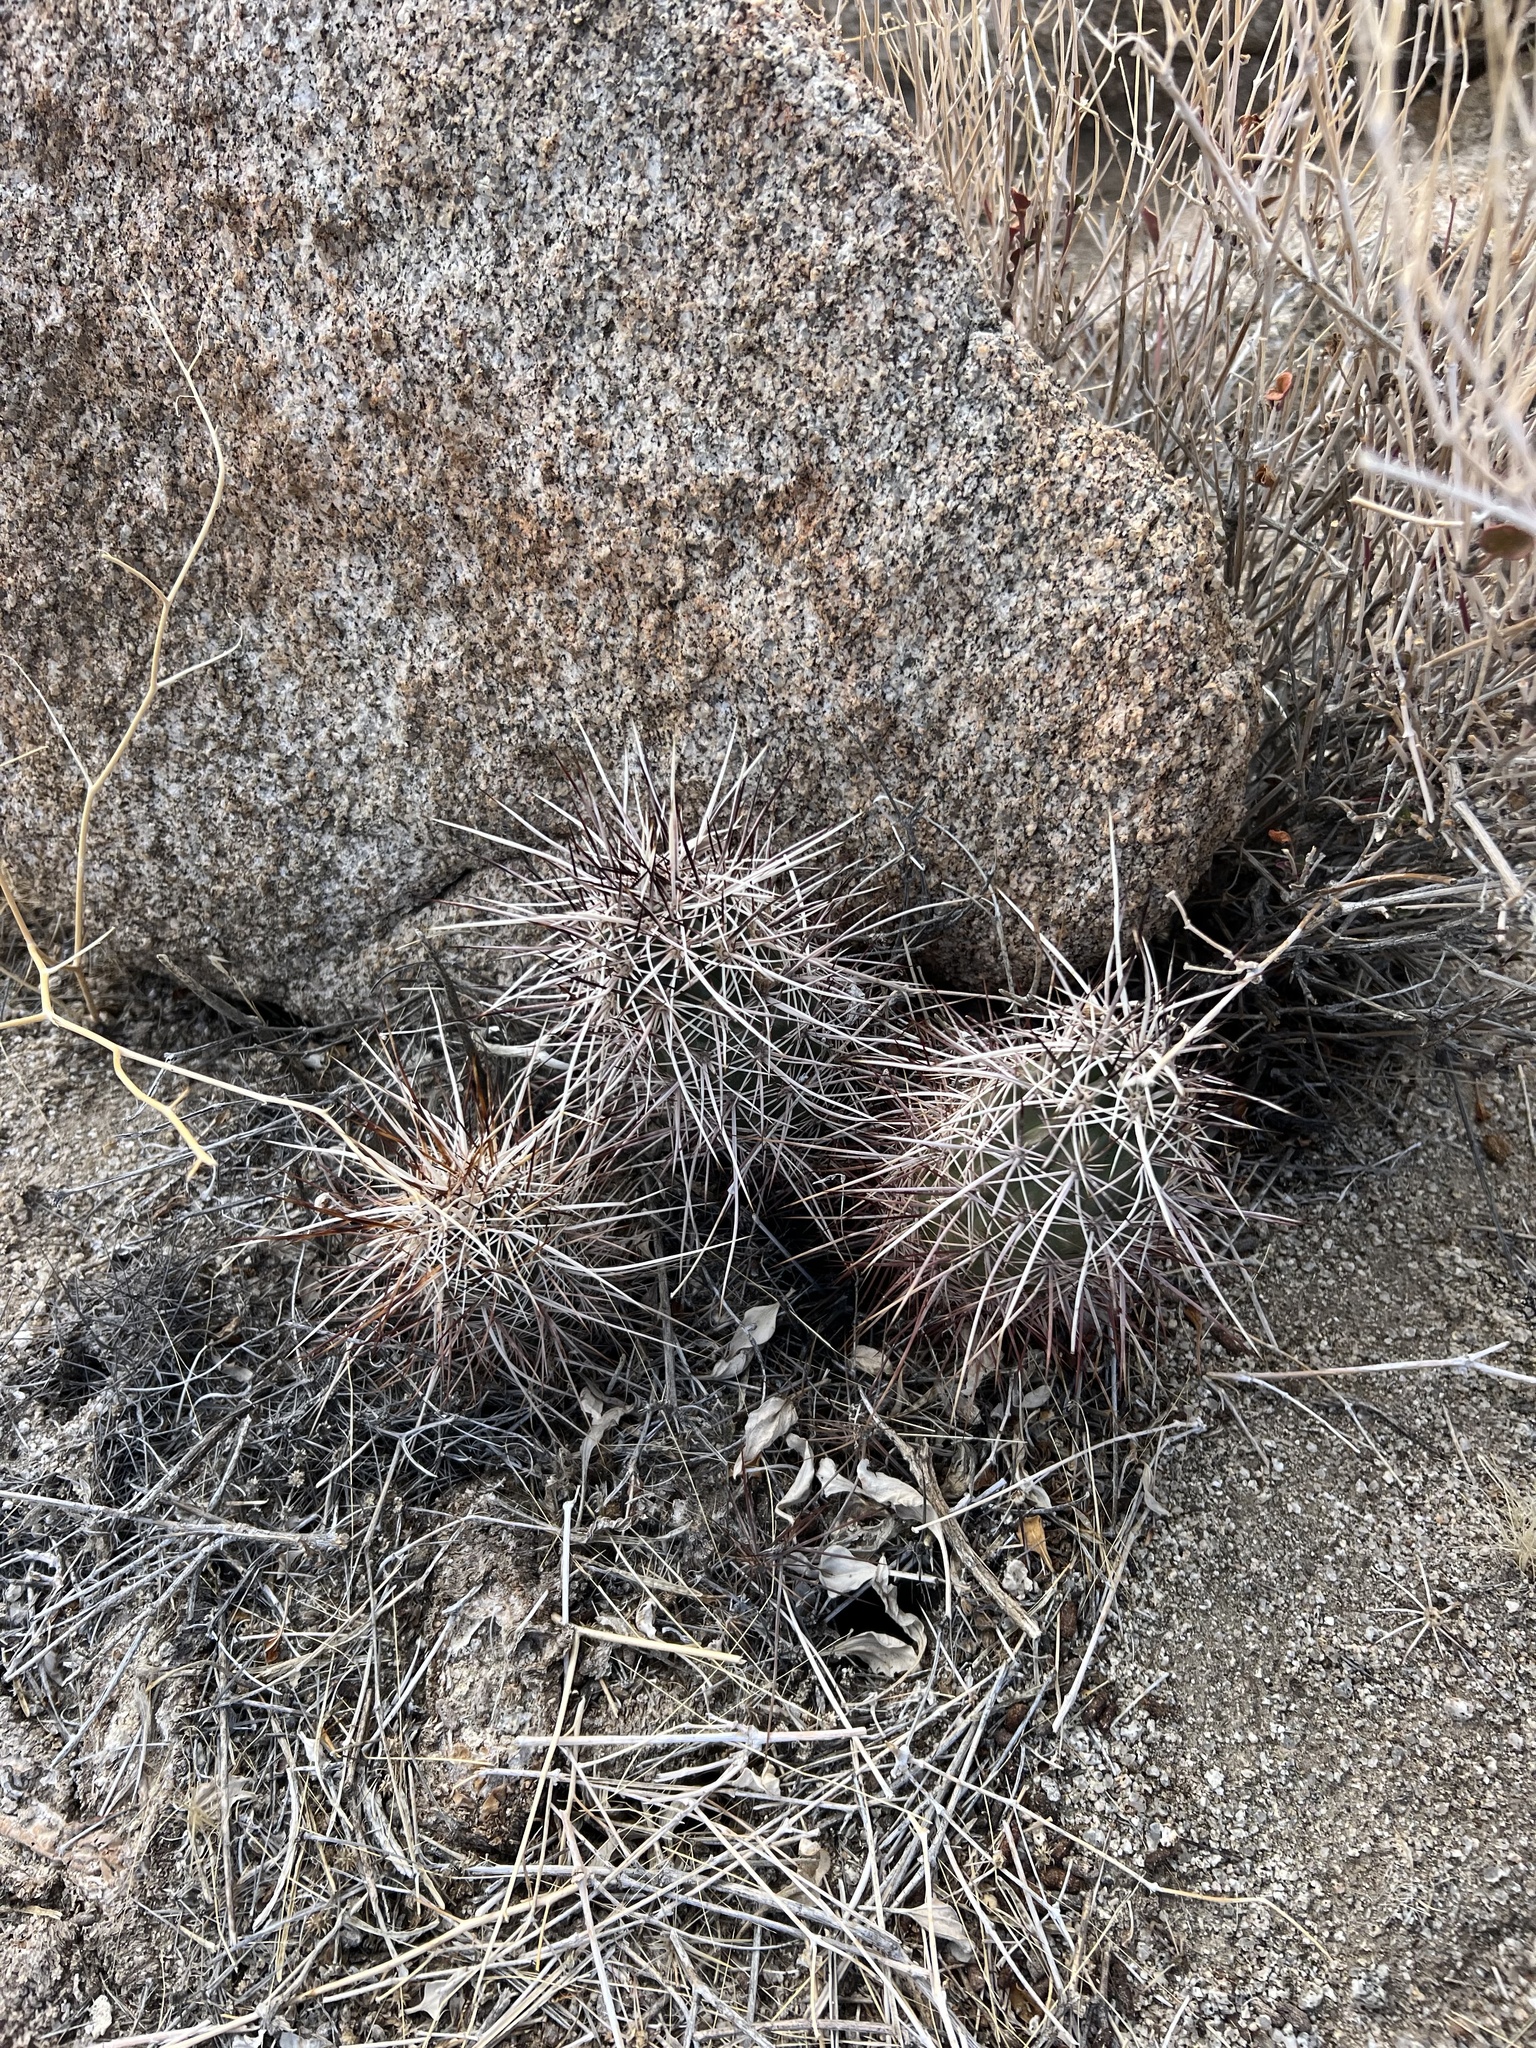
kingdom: Plantae
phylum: Tracheophyta
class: Magnoliopsida
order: Caryophyllales
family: Cactaceae
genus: Echinocereus
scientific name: Echinocereus engelmannii
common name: Engelmann's hedgehog cactus
